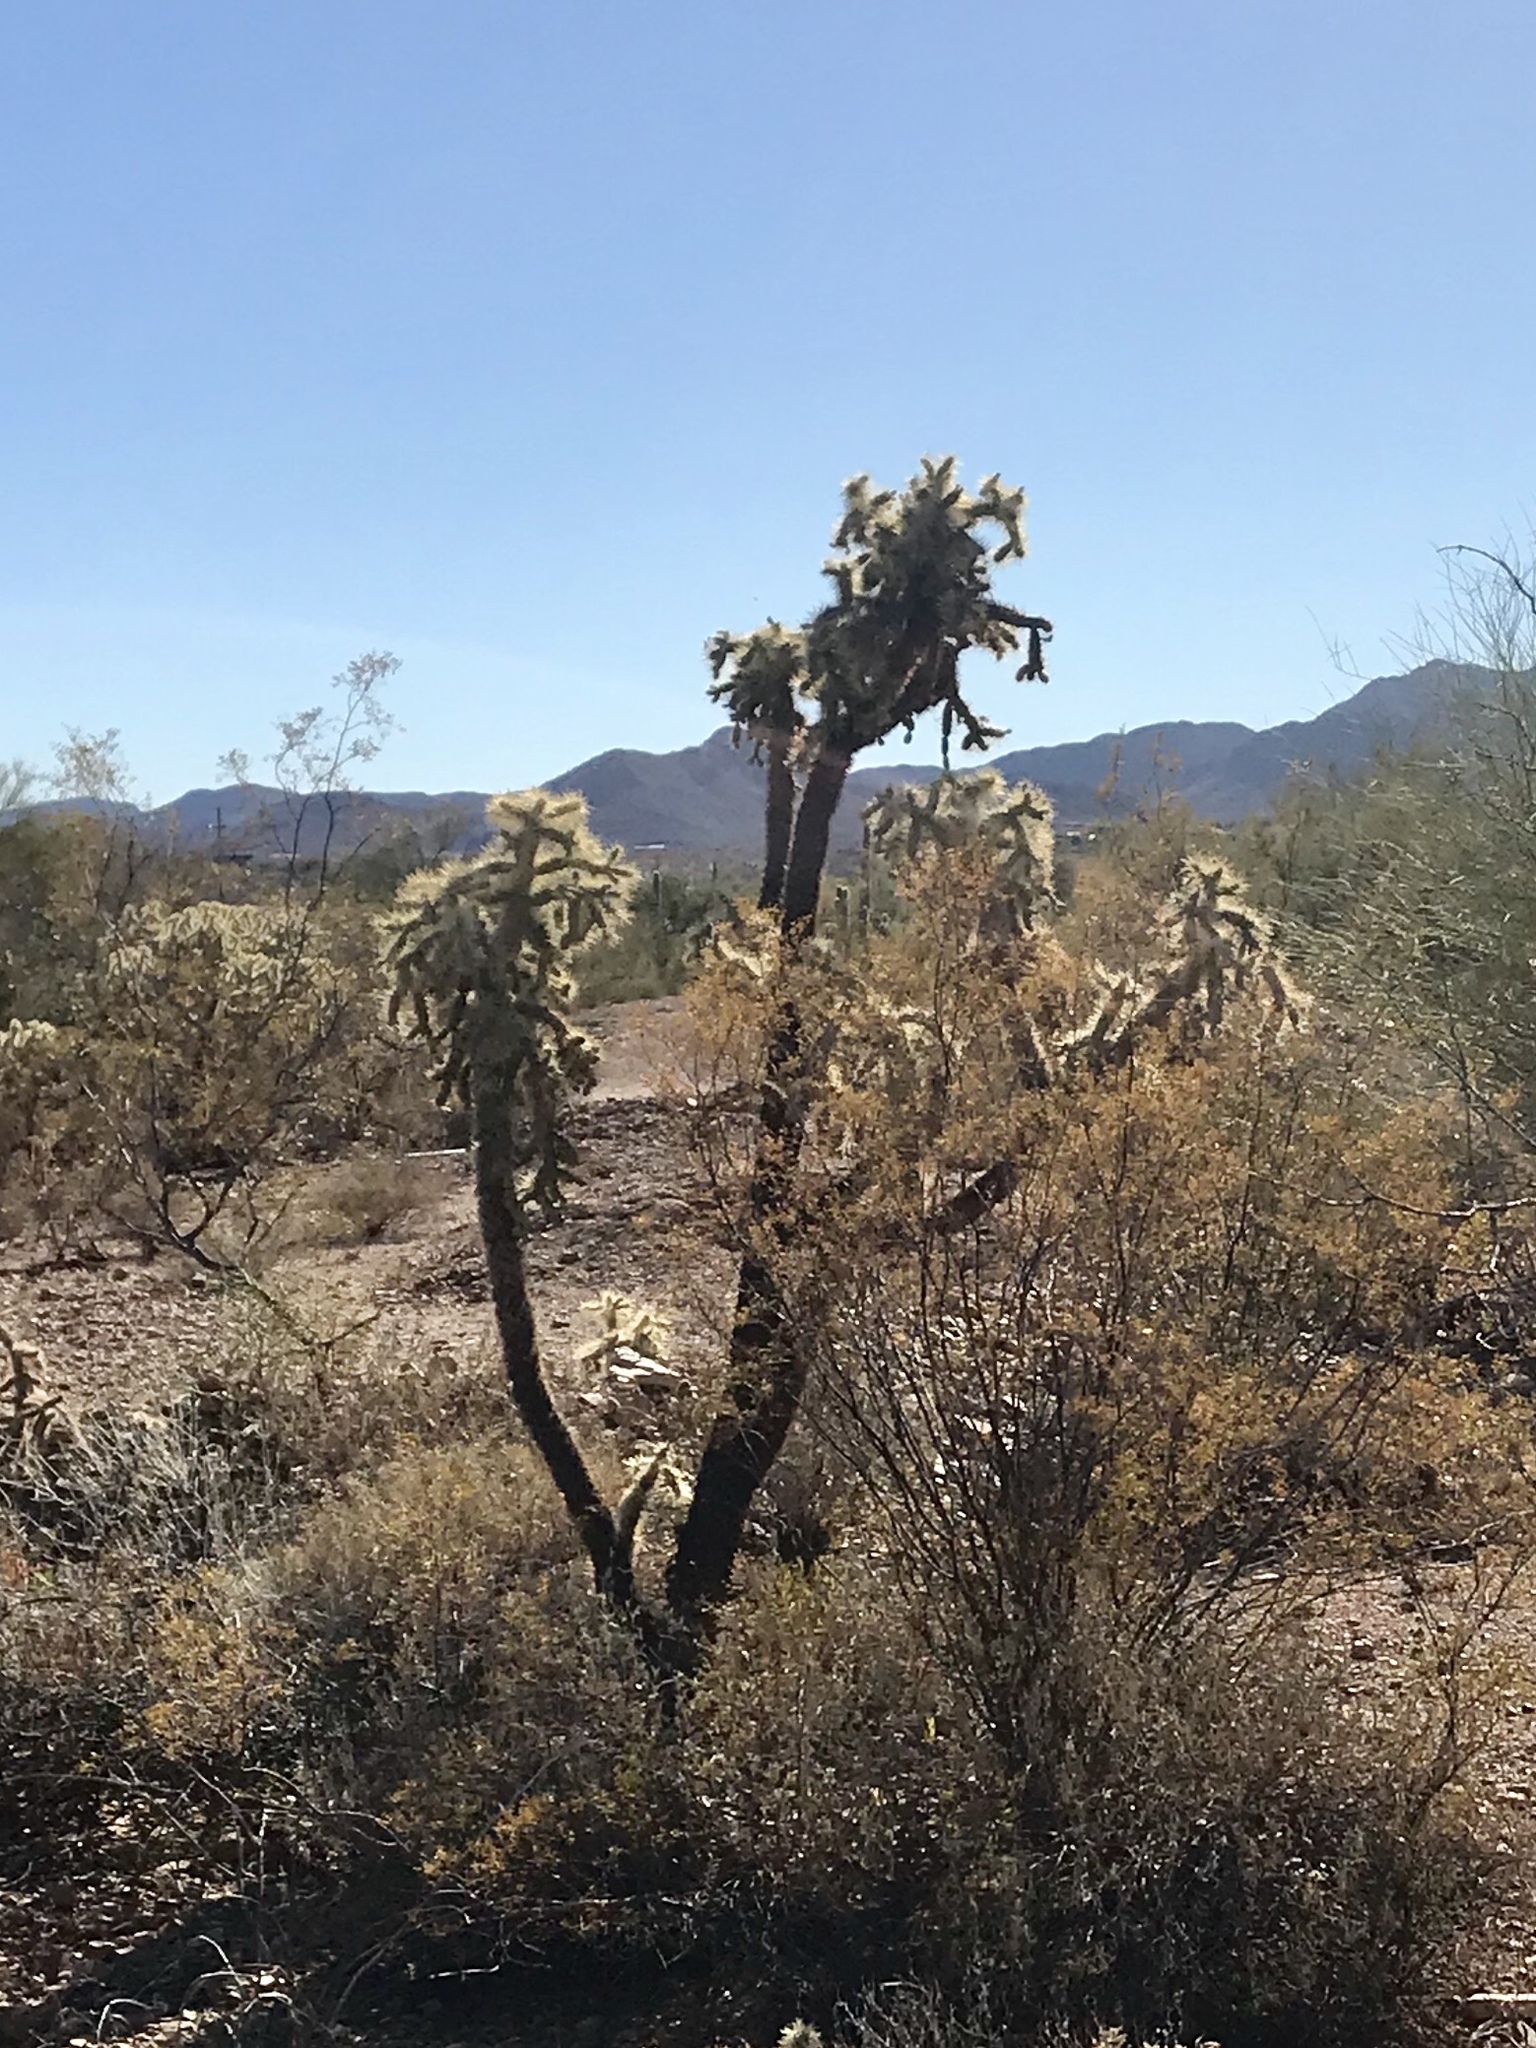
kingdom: Plantae
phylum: Tracheophyta
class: Magnoliopsida
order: Caryophyllales
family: Cactaceae
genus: Cylindropuntia
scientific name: Cylindropuntia fulgida
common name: Jumping cholla
